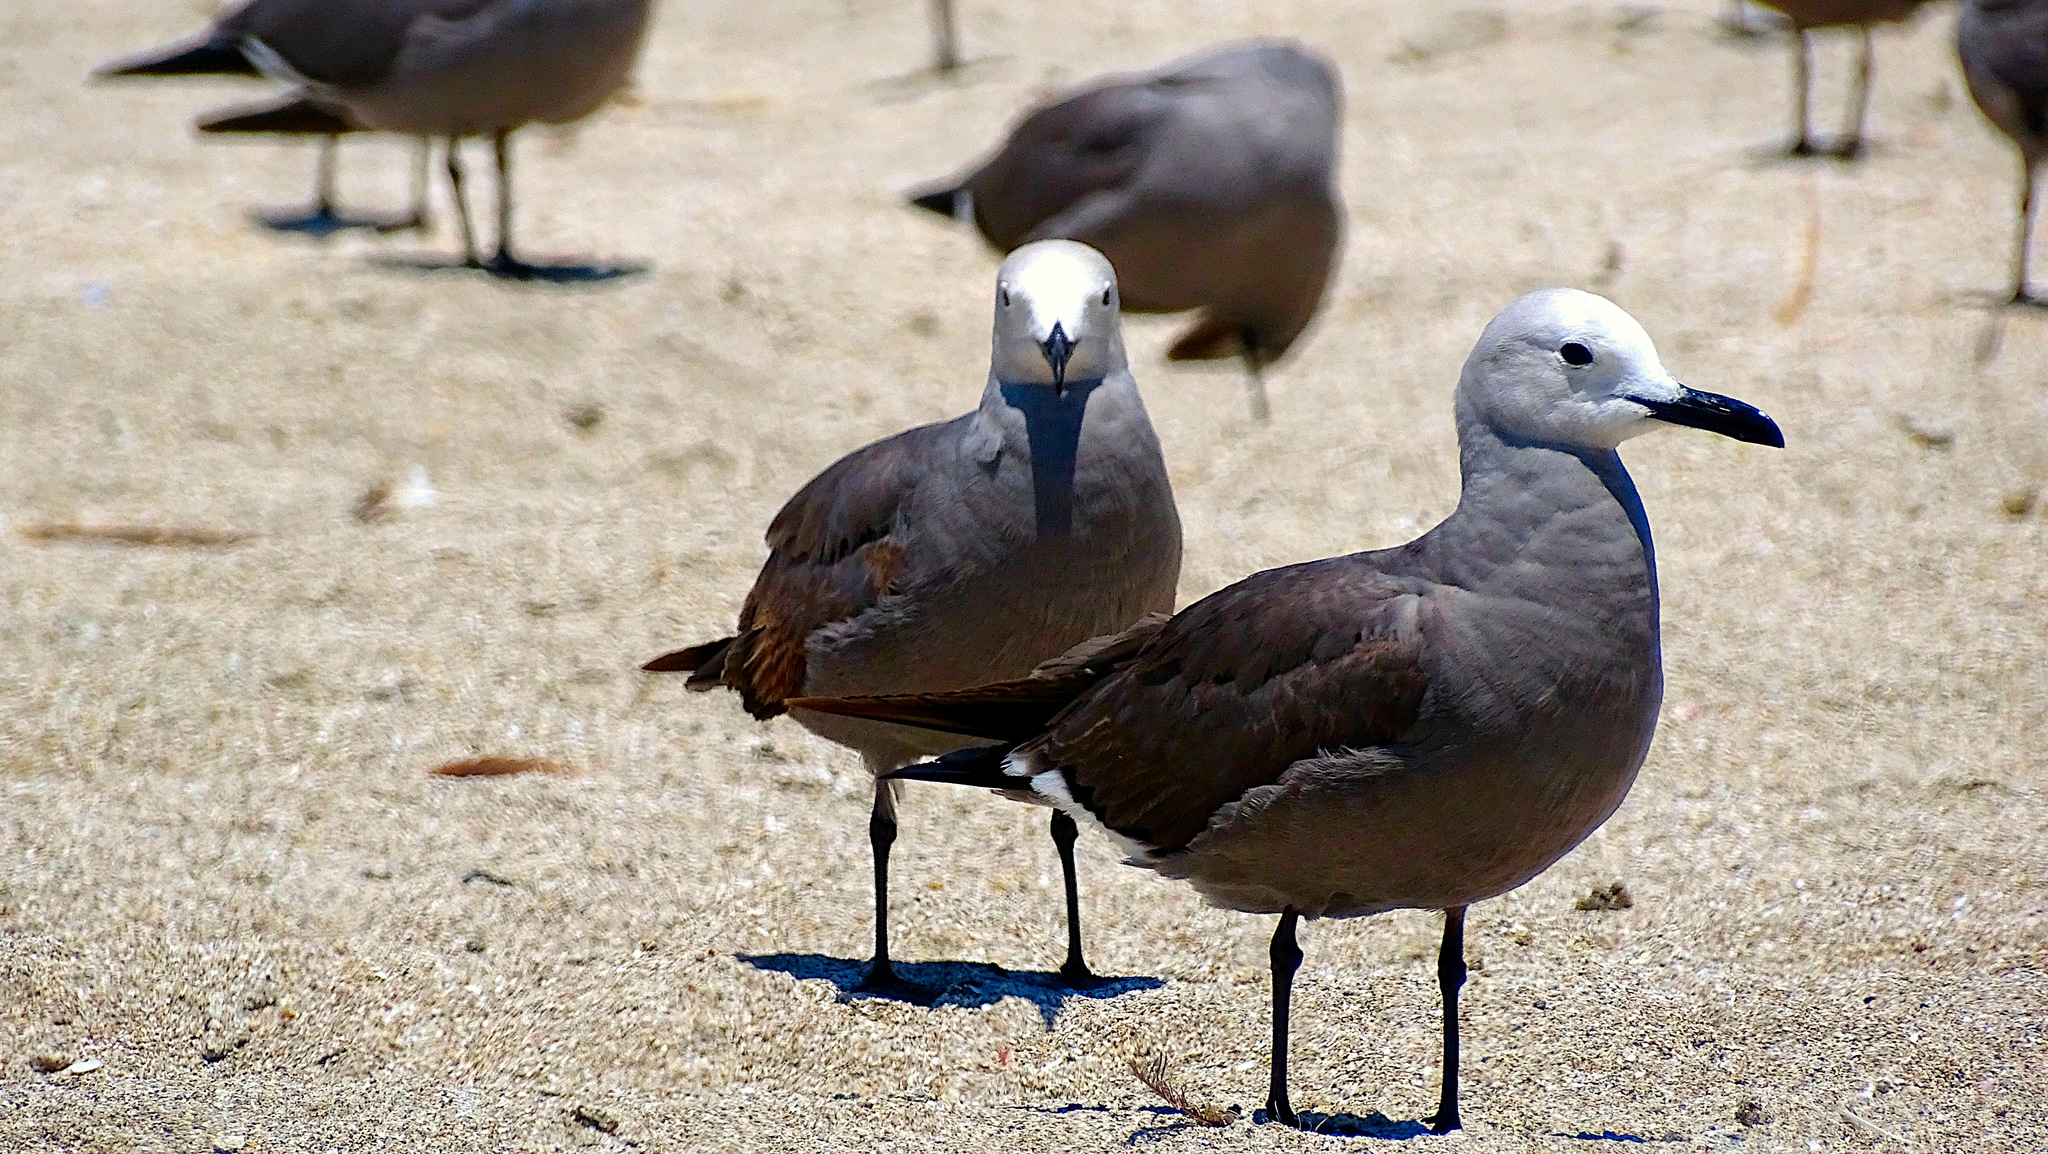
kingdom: Animalia
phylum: Chordata
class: Aves
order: Charadriiformes
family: Laridae
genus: Leucophaeus
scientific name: Leucophaeus modestus
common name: Gray gull
